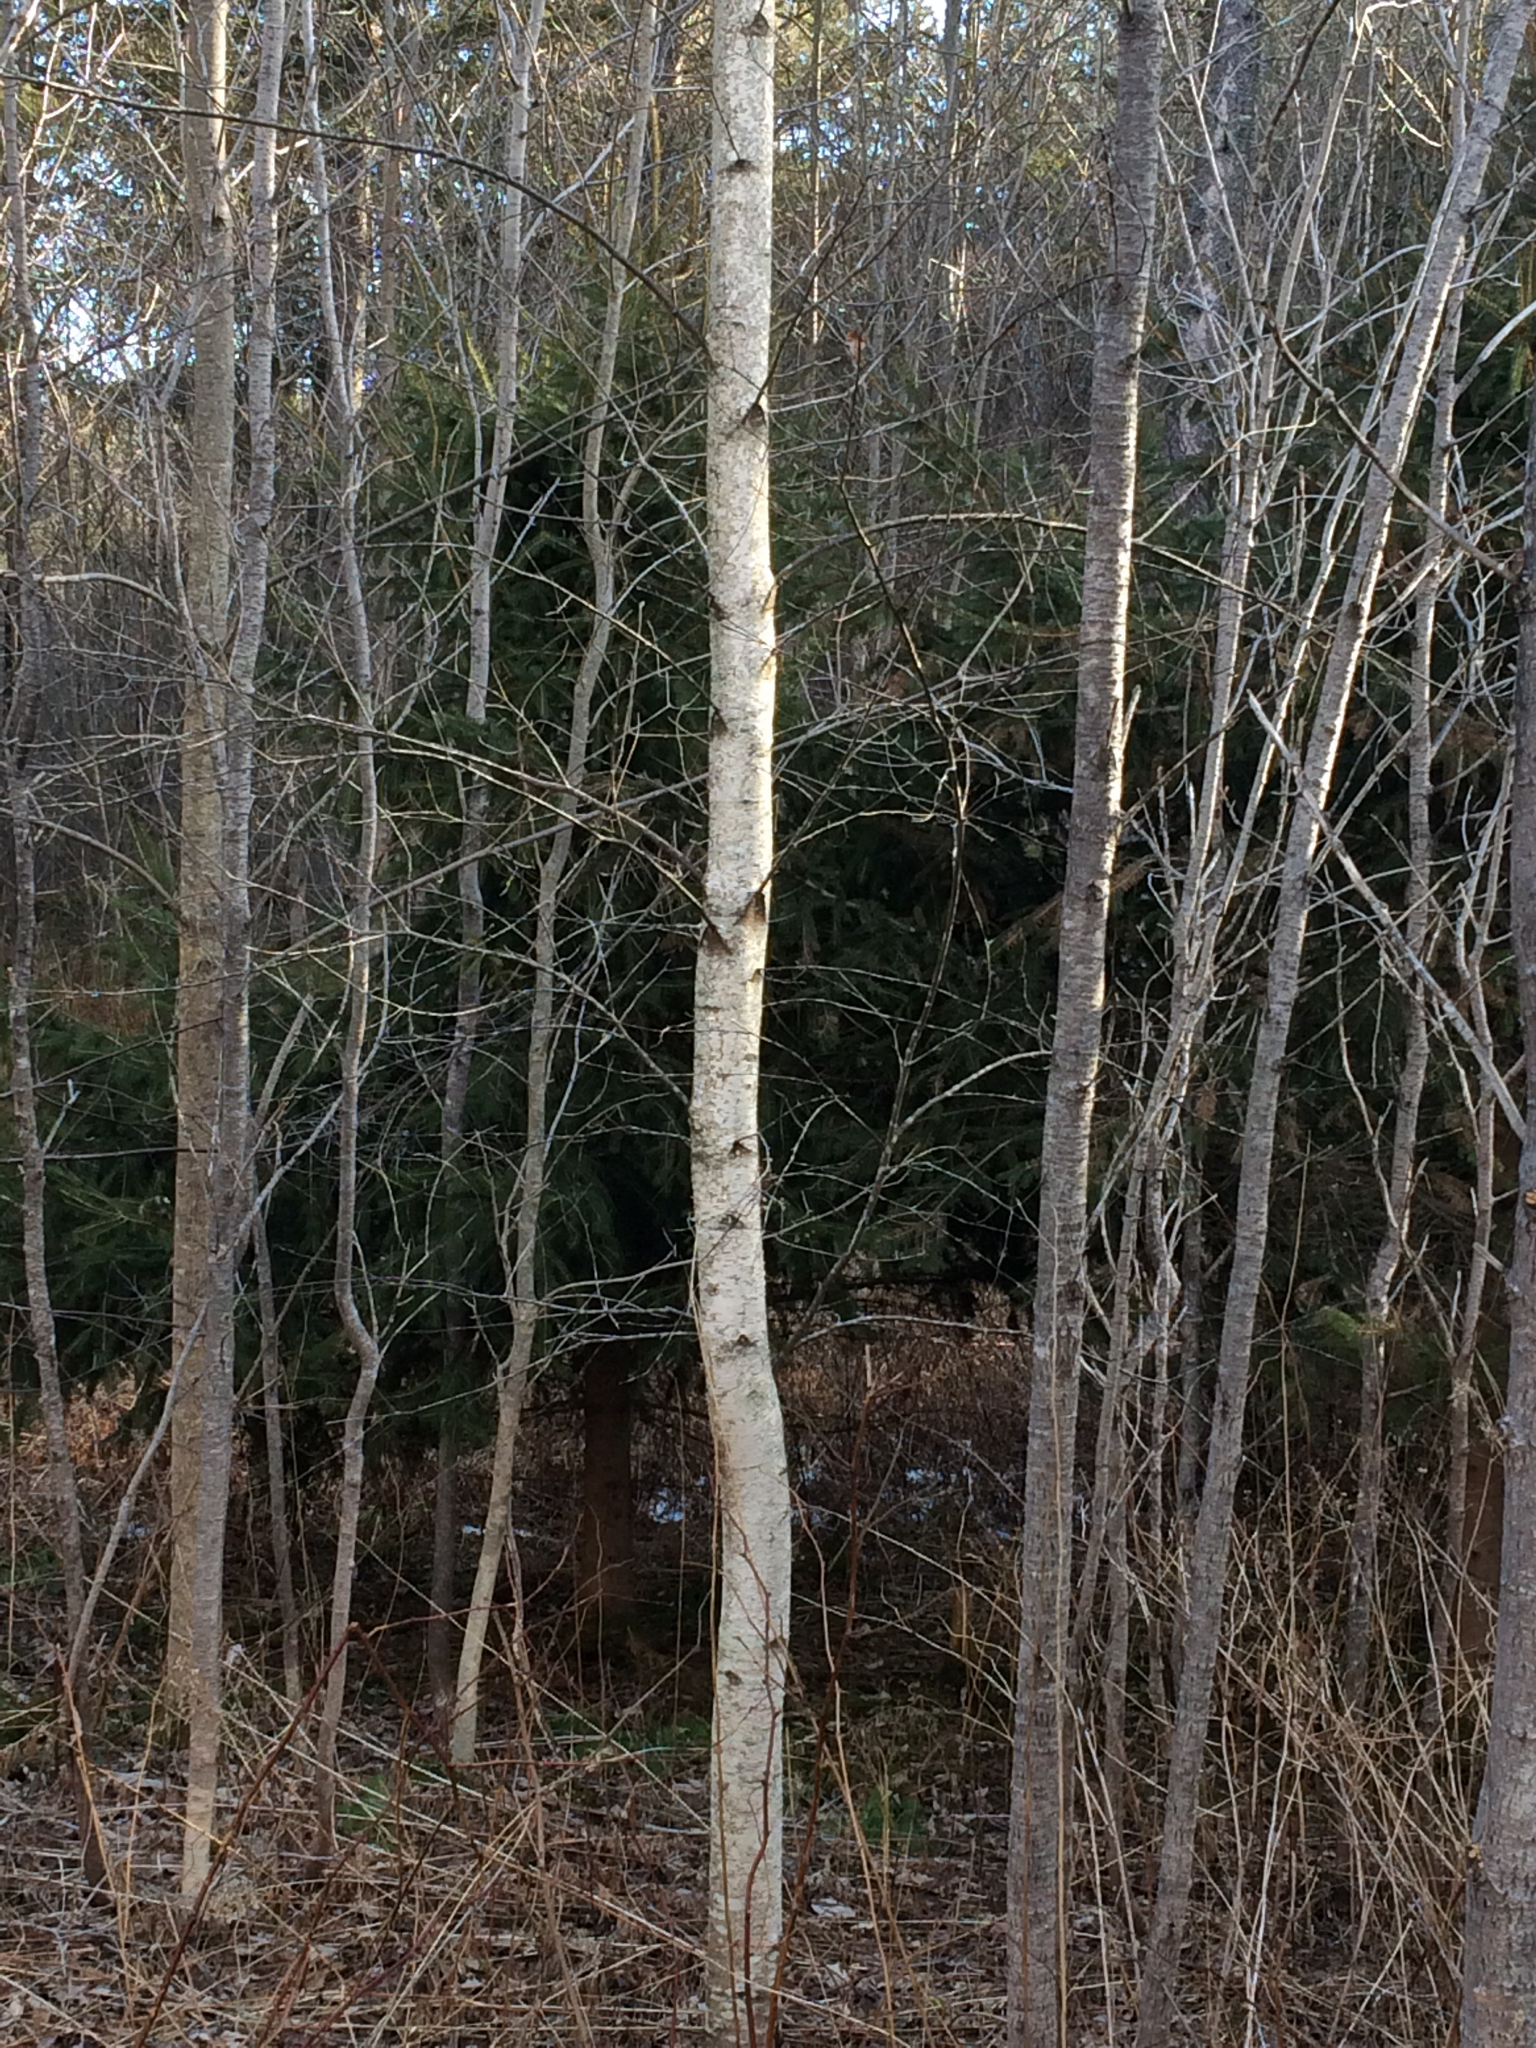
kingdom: Plantae
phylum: Tracheophyta
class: Magnoliopsida
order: Fagales
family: Betulaceae
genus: Betula
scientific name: Betula populifolia
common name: Fire birch
